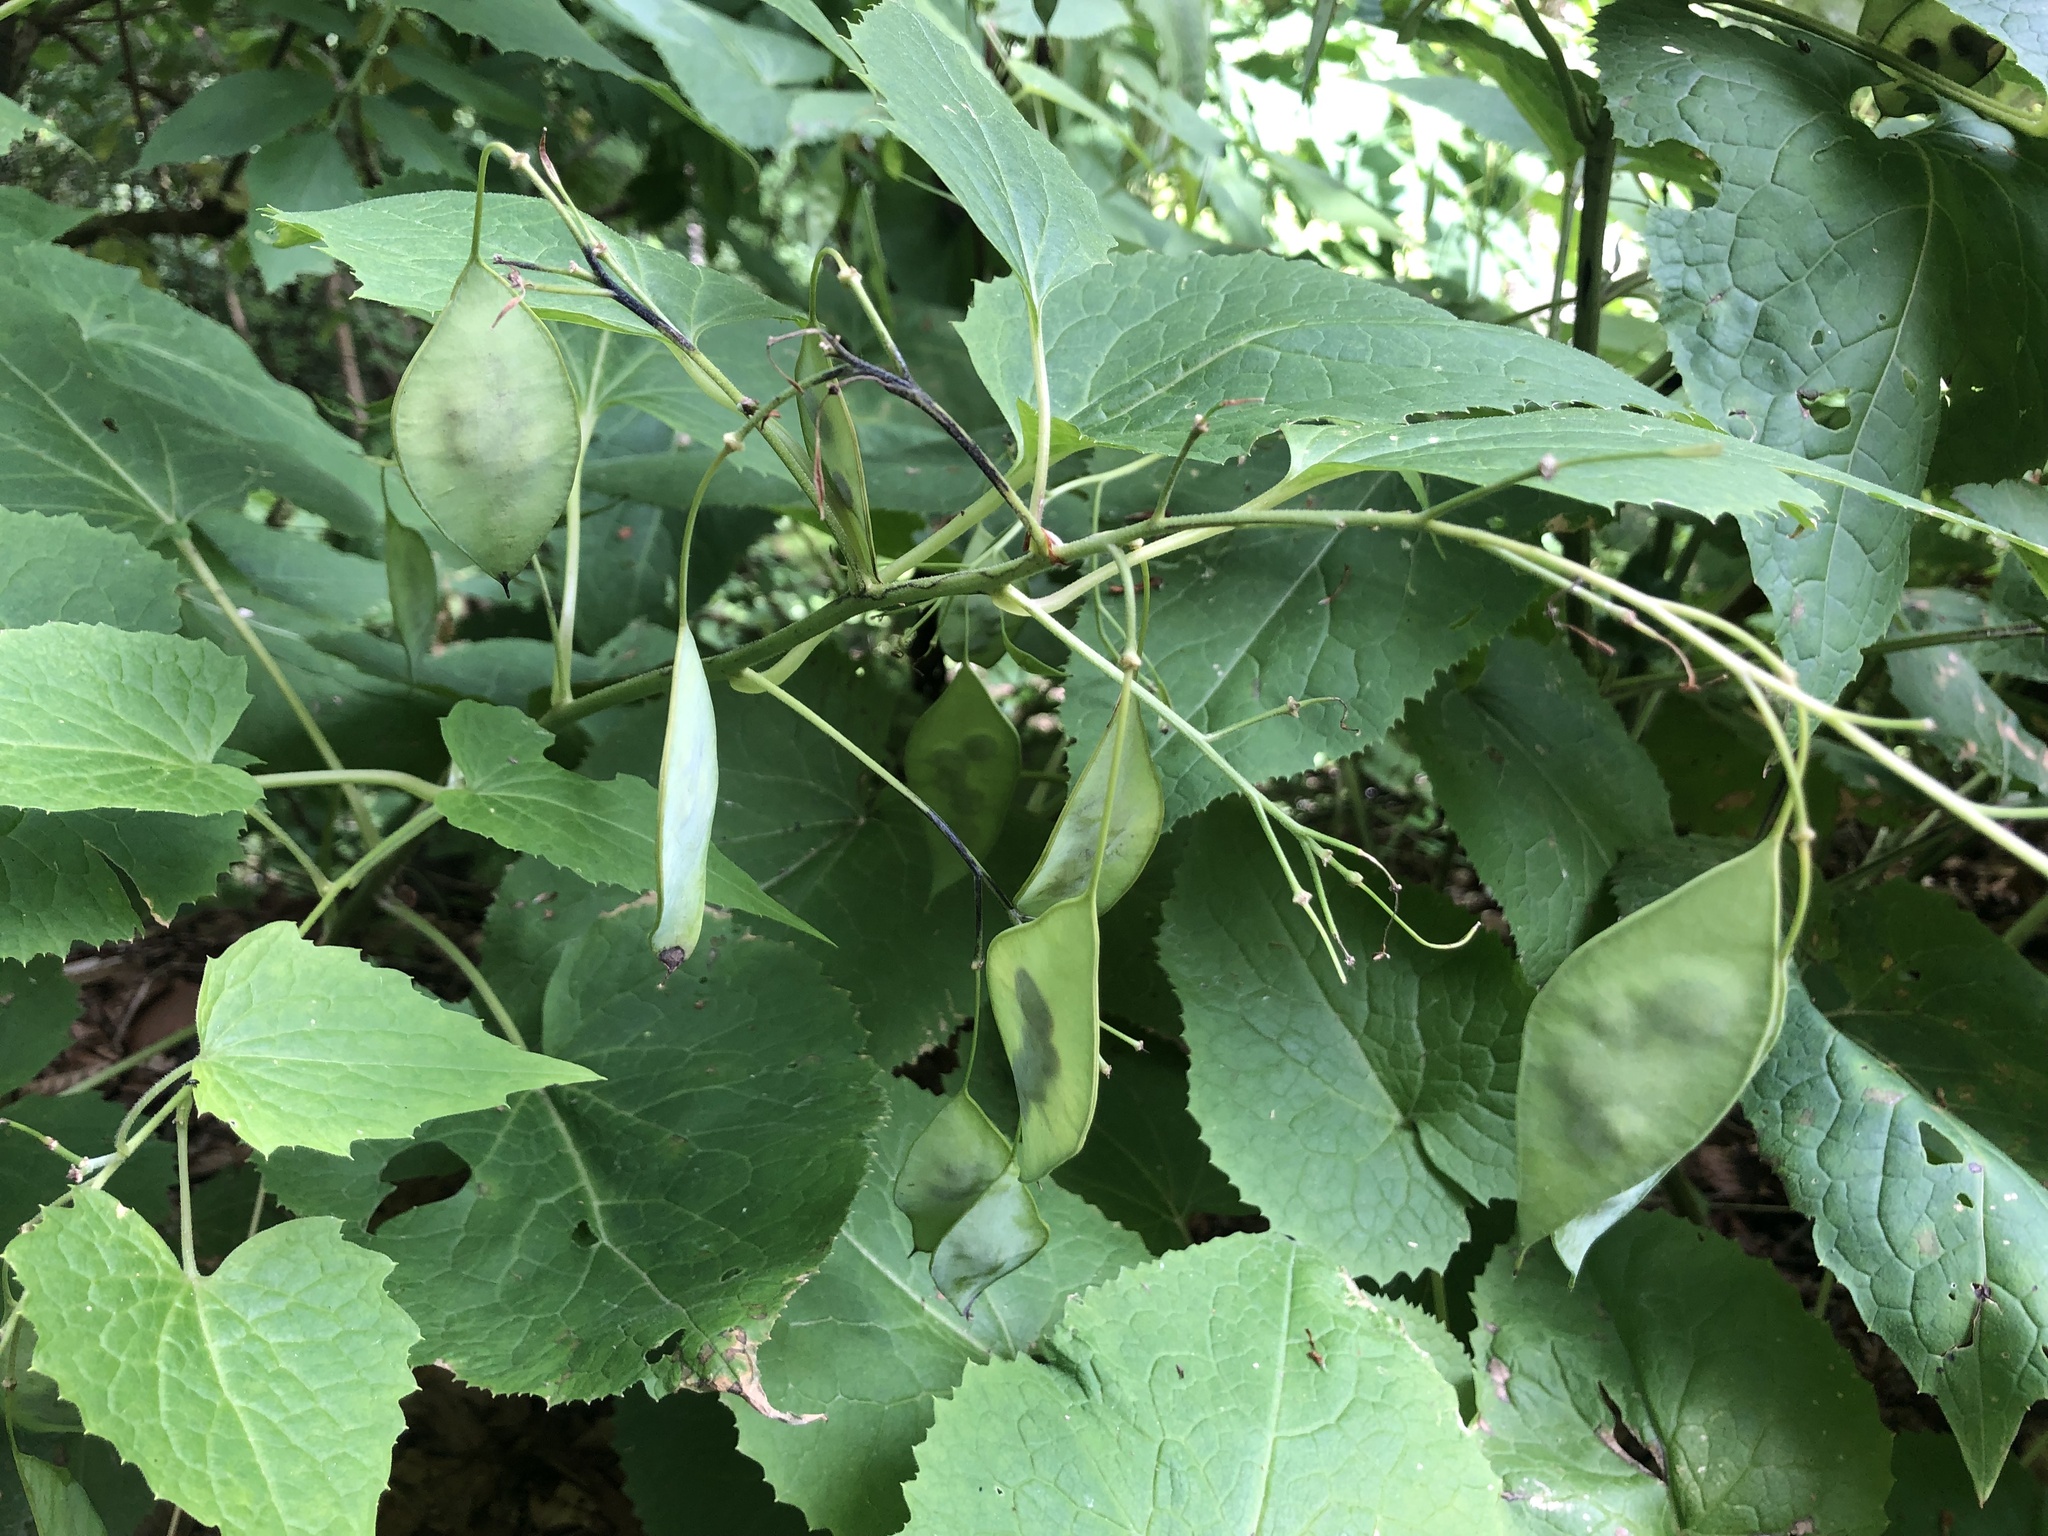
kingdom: Plantae
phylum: Tracheophyta
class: Magnoliopsida
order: Brassicales
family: Brassicaceae
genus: Lunaria
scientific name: Lunaria rediviva
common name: Perennial honesty
